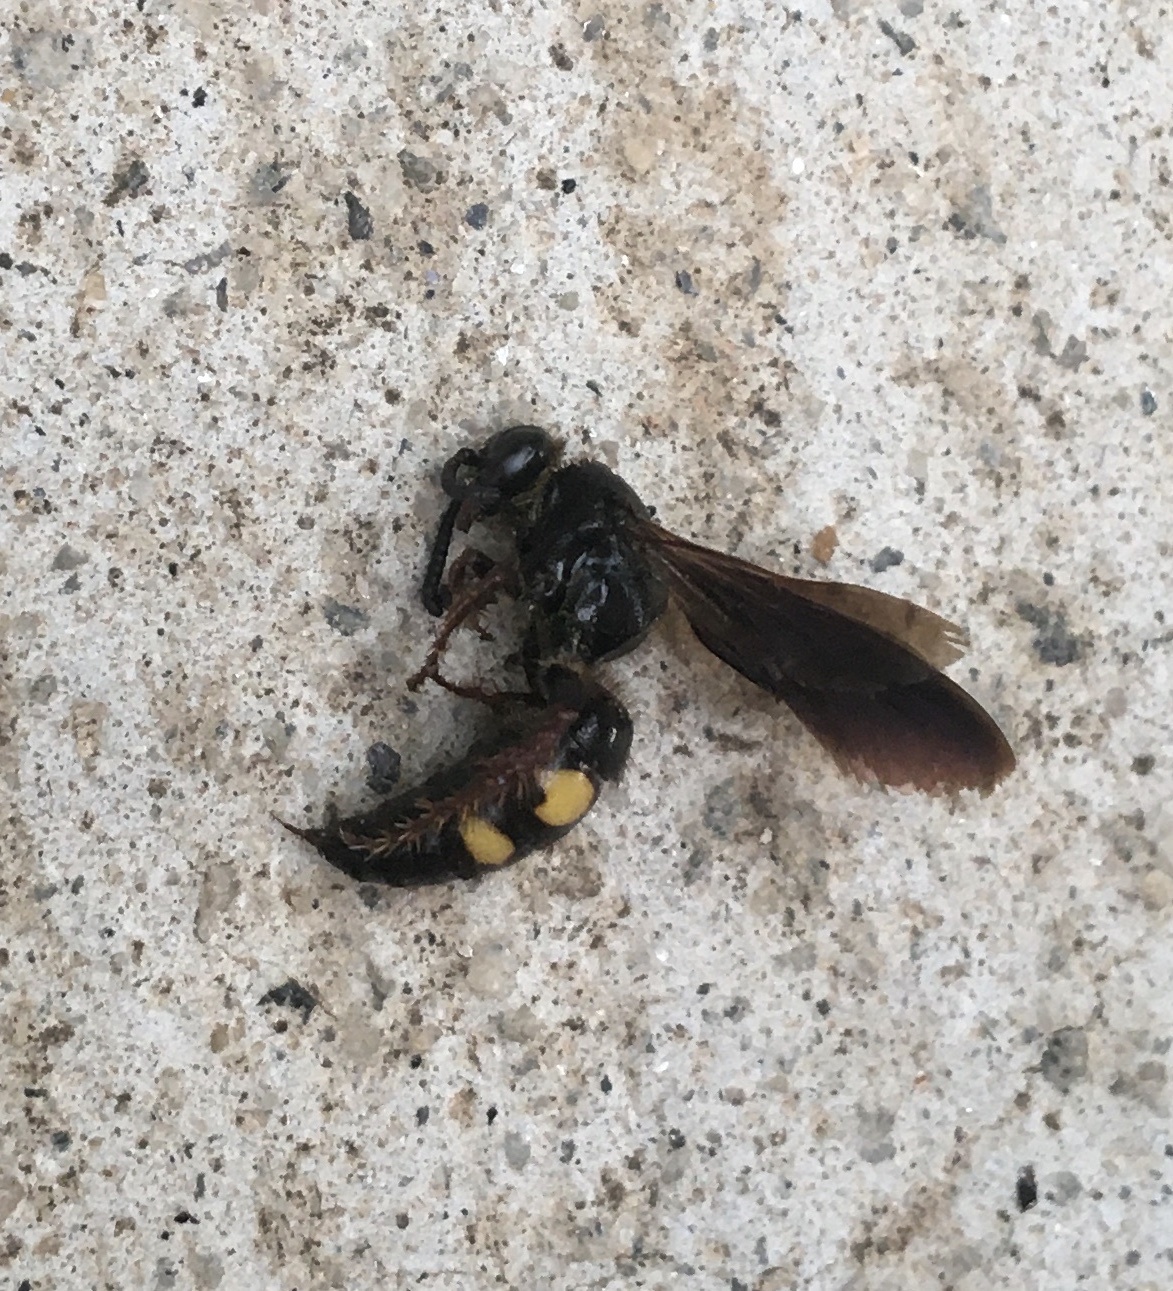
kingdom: Animalia
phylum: Arthropoda
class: Insecta
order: Hymenoptera
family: Scoliidae
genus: Scolia
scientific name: Scolia nobilitata
